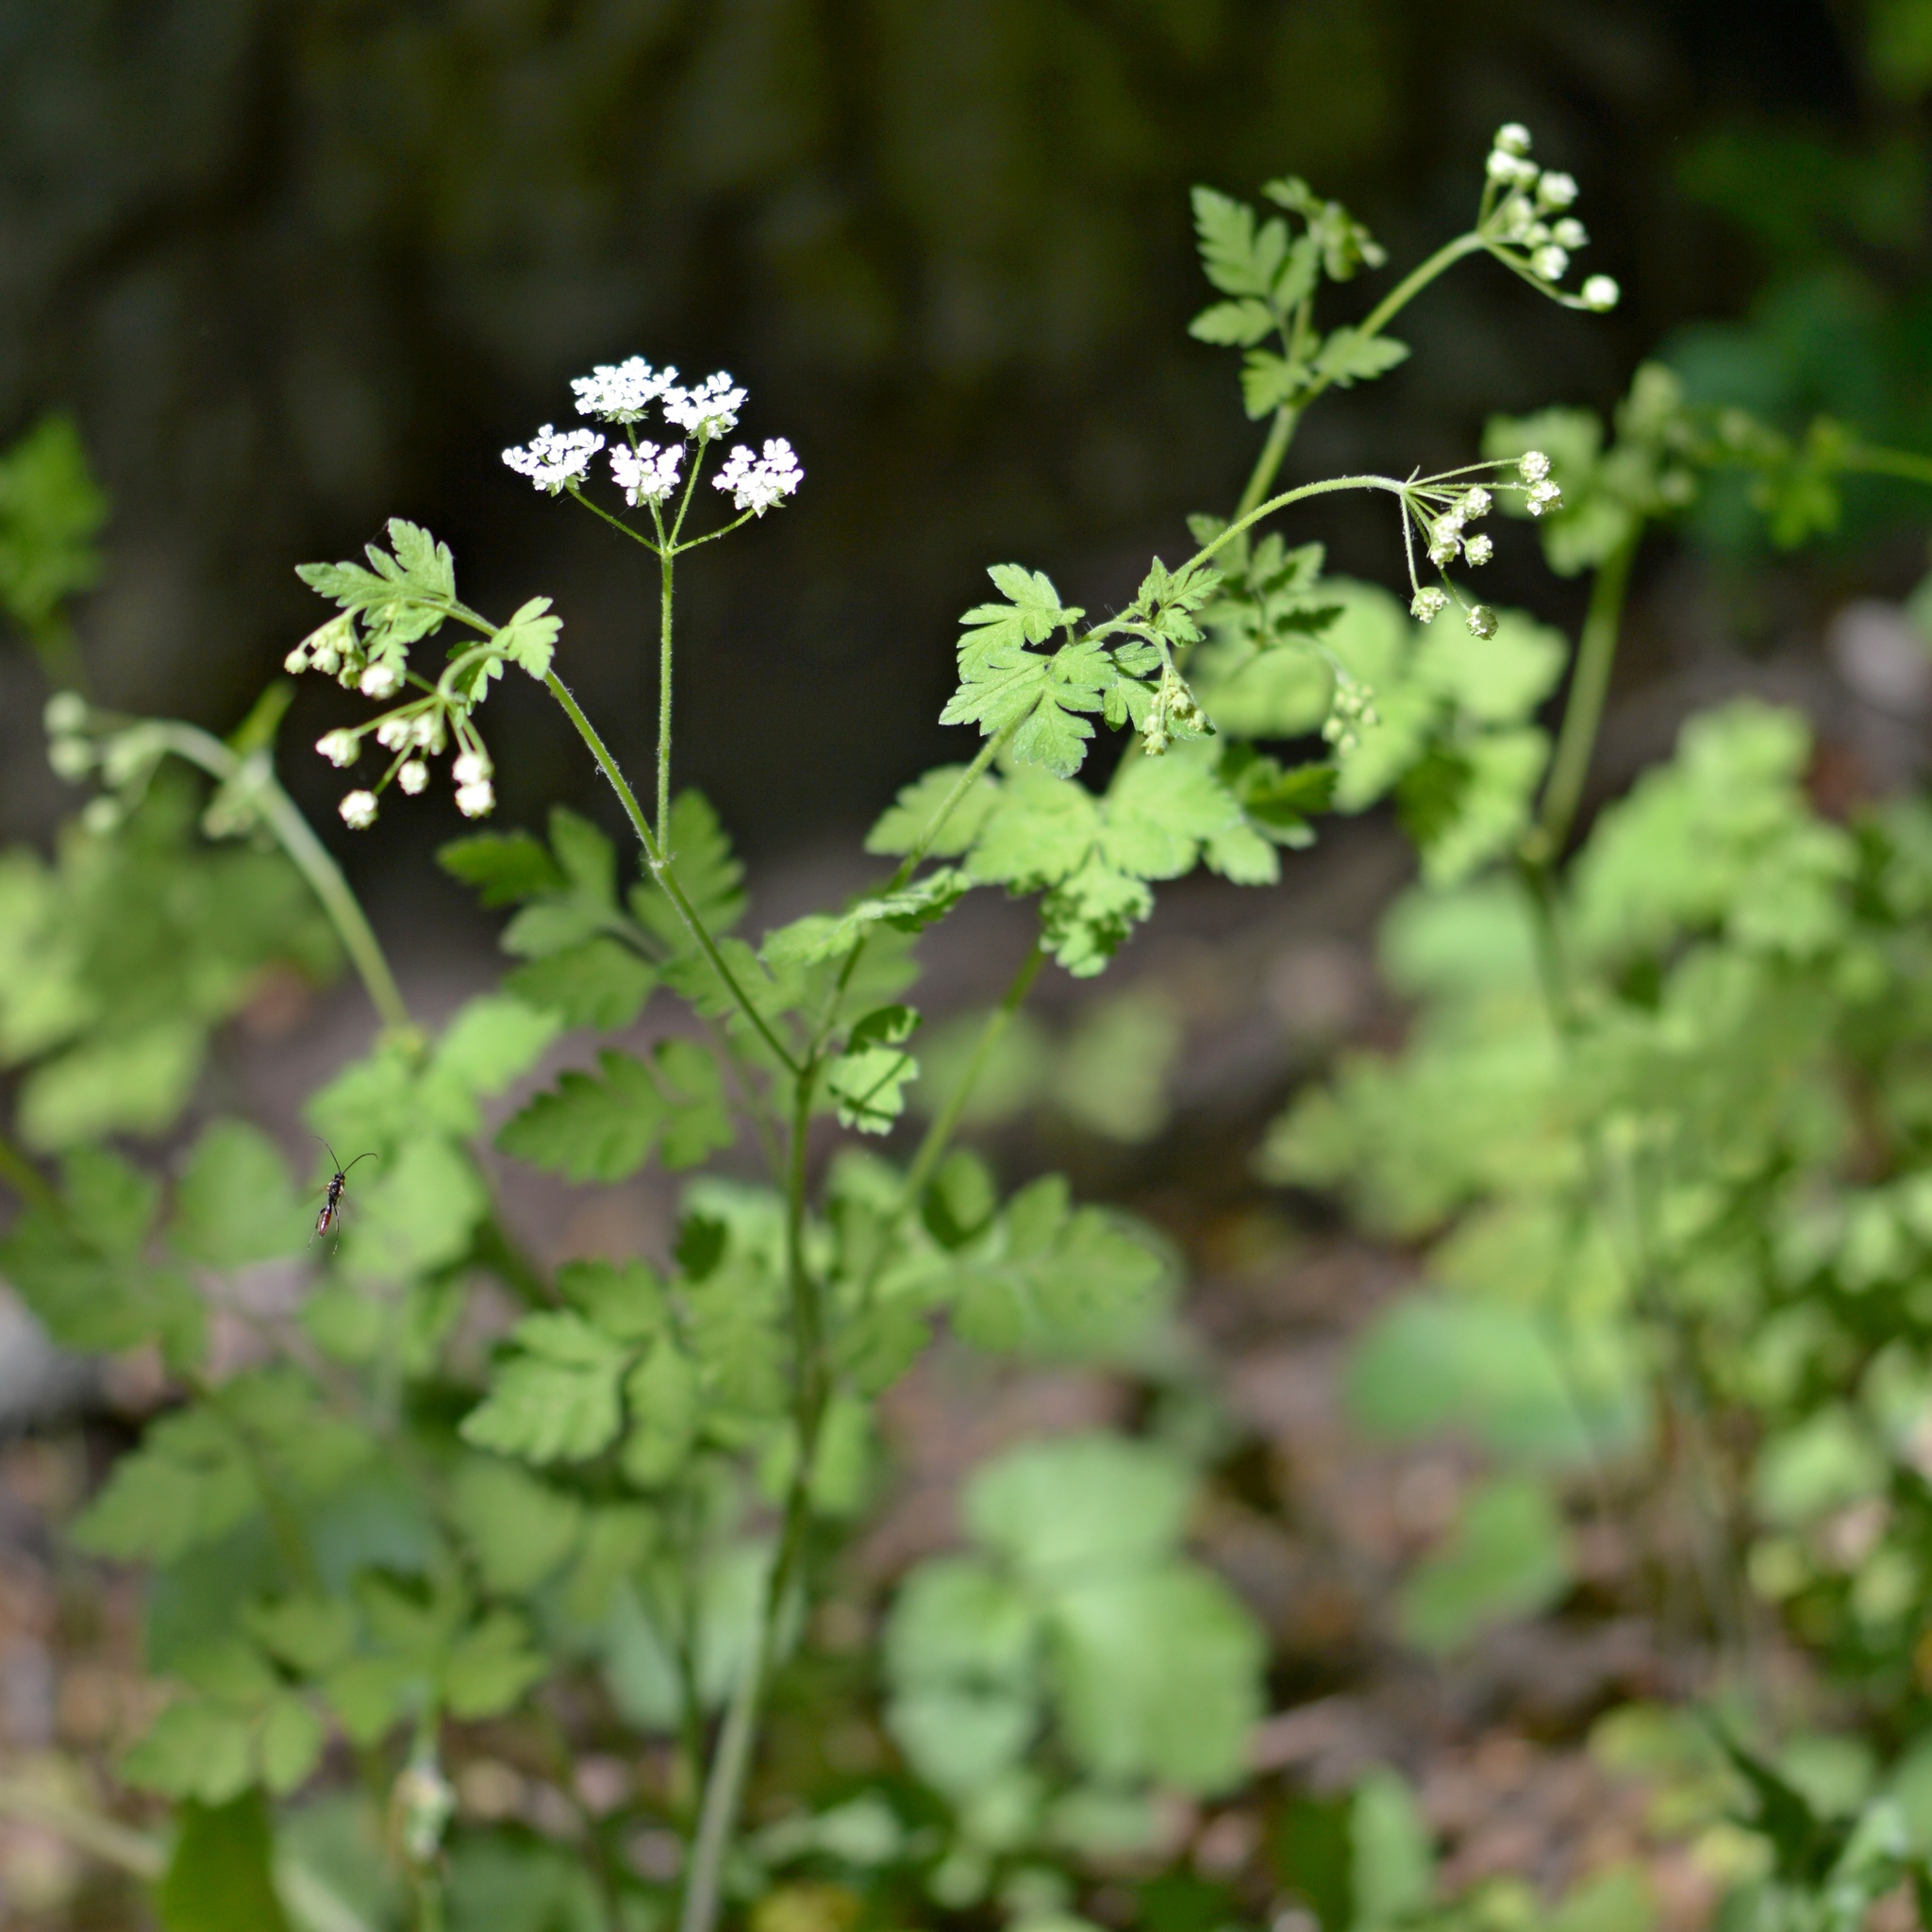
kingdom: Plantae
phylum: Tracheophyta
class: Magnoliopsida
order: Apiales
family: Apiaceae
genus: Chaerophyllum
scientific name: Chaerophyllum temulum
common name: Rough chervil
